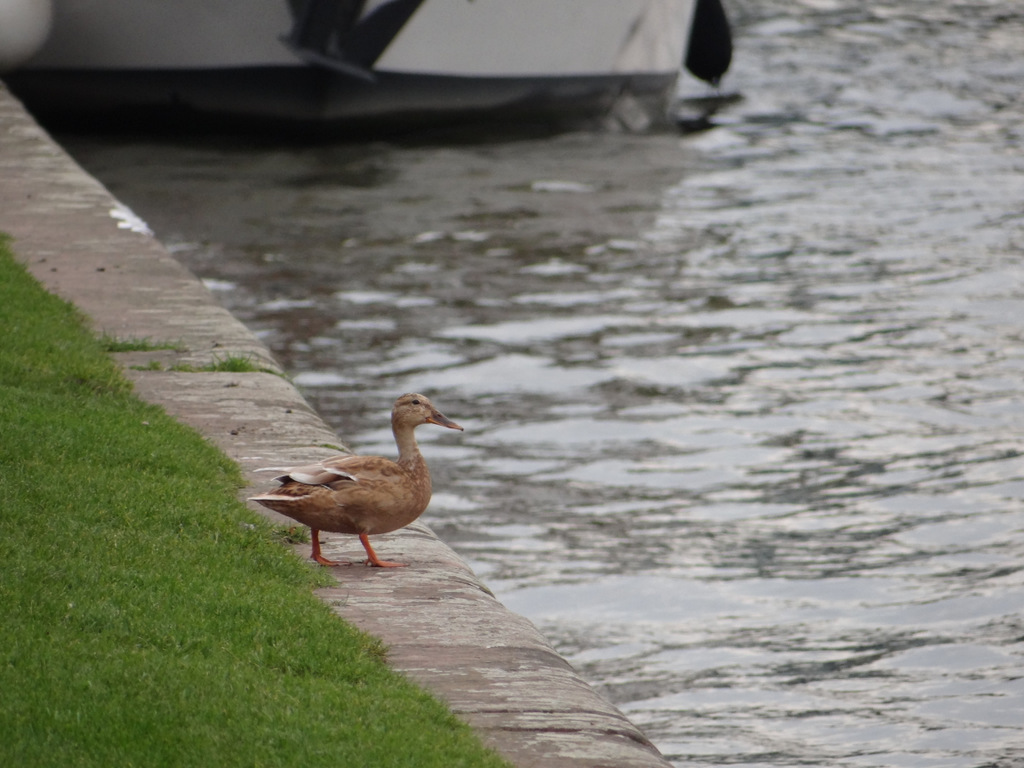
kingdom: Animalia
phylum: Chordata
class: Aves
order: Anseriformes
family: Anatidae
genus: Anas
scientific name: Anas platyrhynchos
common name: Mallard
